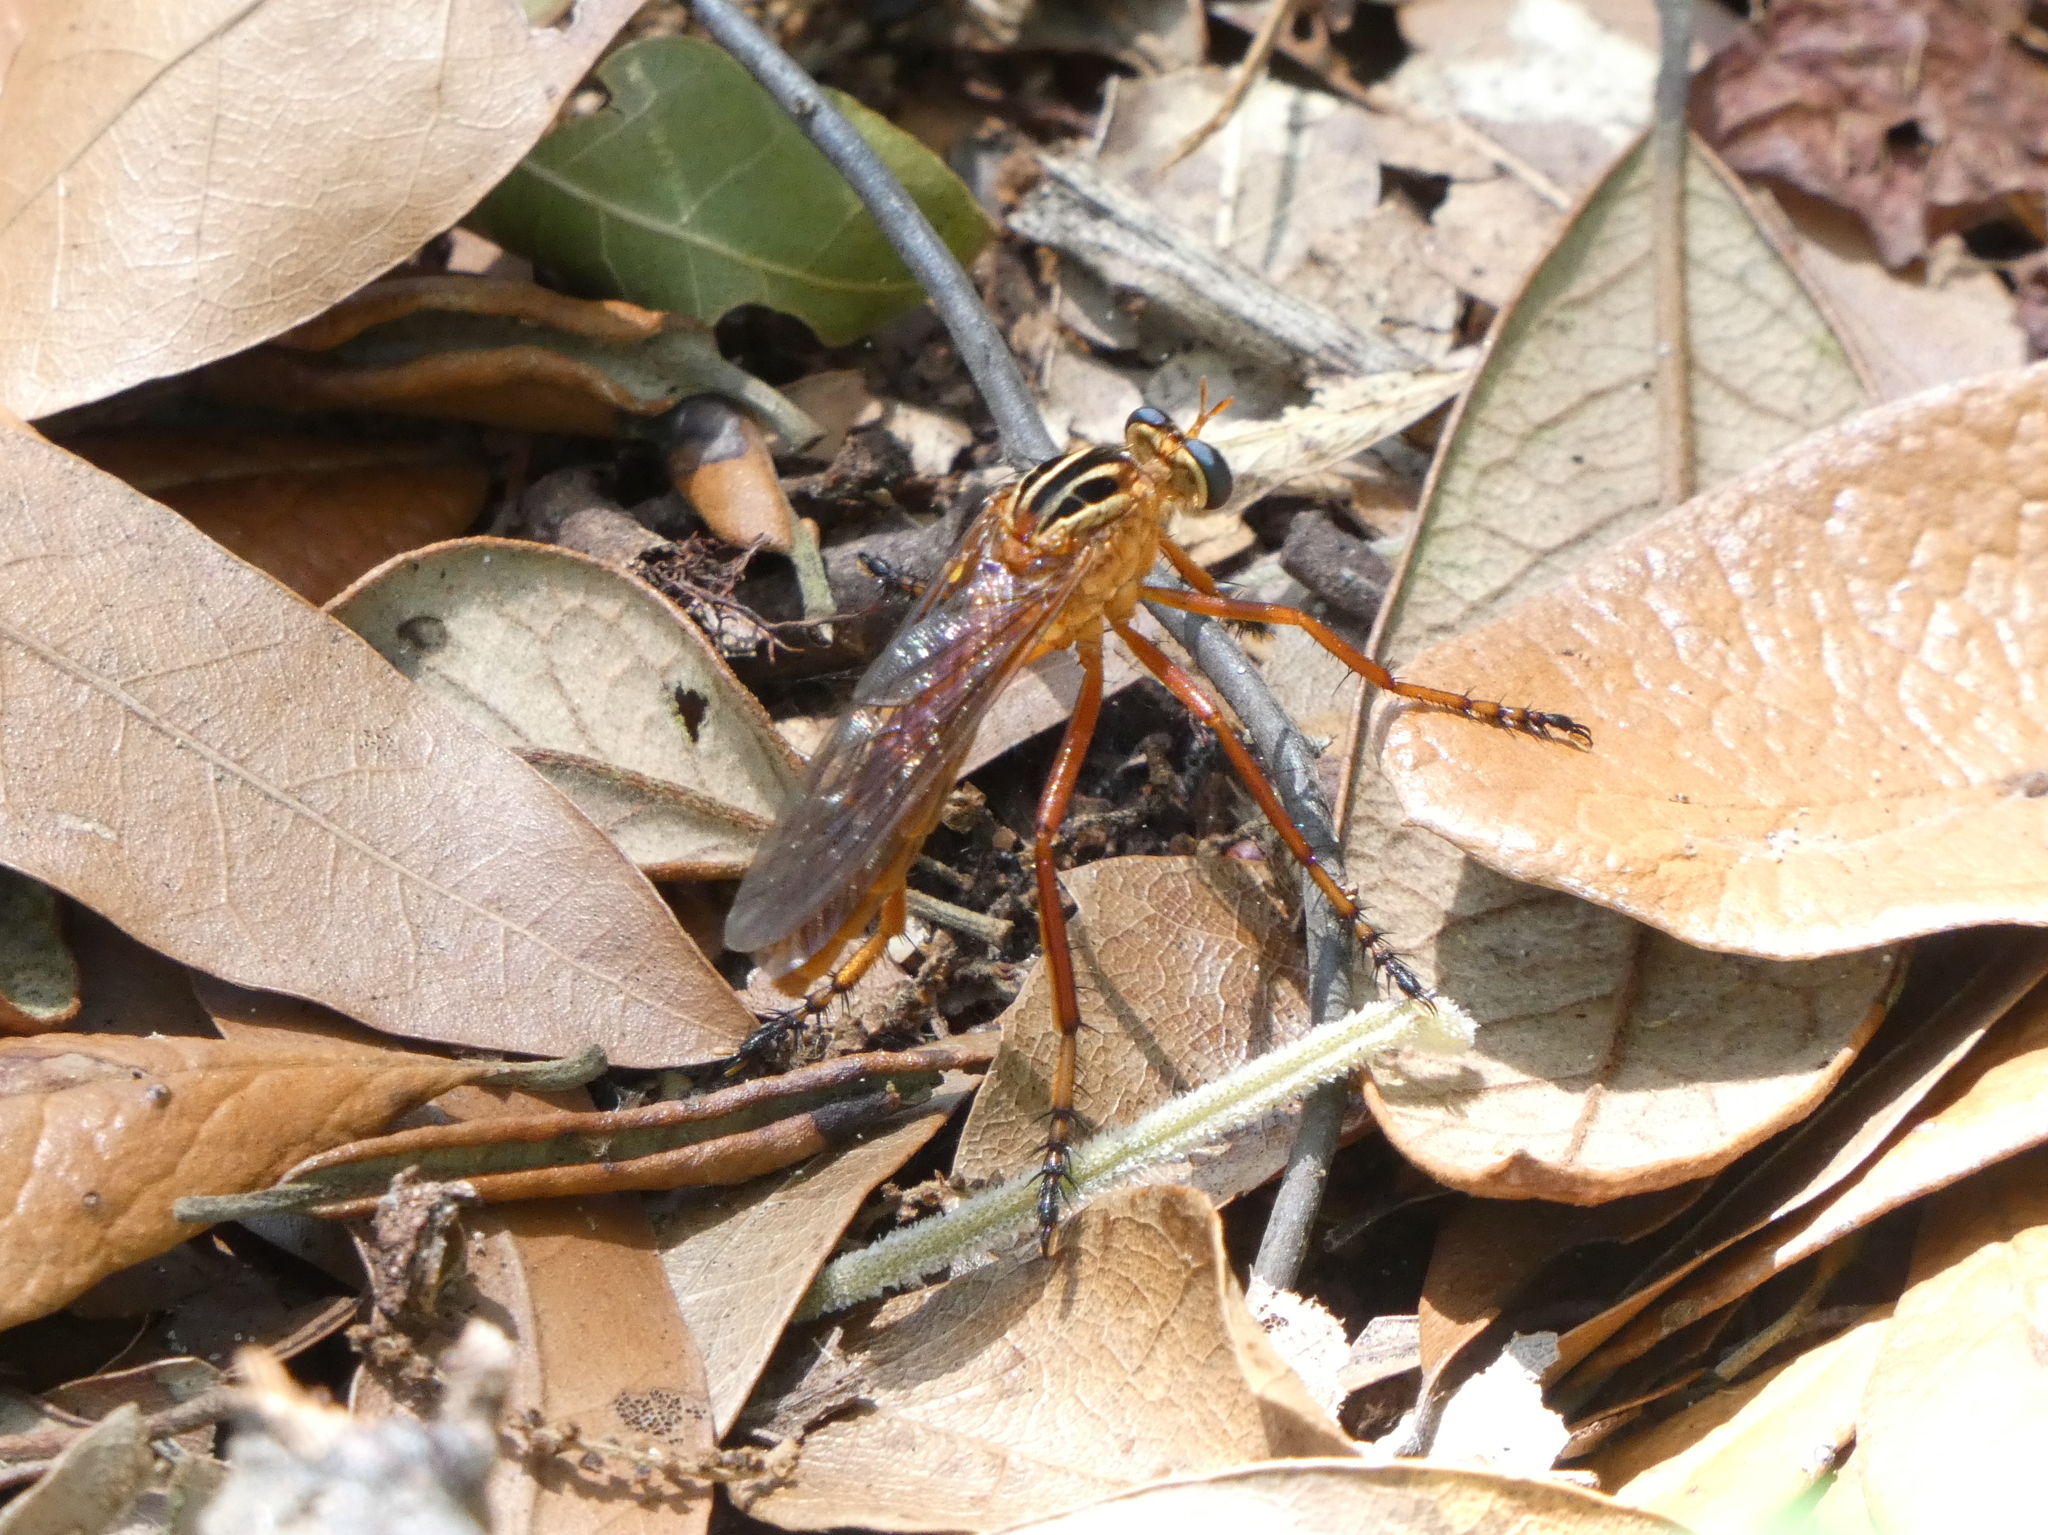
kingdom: Animalia
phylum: Arthropoda
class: Insecta
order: Diptera
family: Asilidae
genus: Diogmites
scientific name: Diogmites neoternatus
